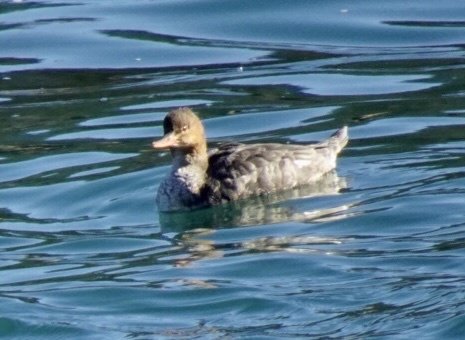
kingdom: Animalia
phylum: Chordata
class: Aves
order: Anseriformes
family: Anatidae
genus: Mergus
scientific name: Mergus serrator
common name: Red-breasted merganser
